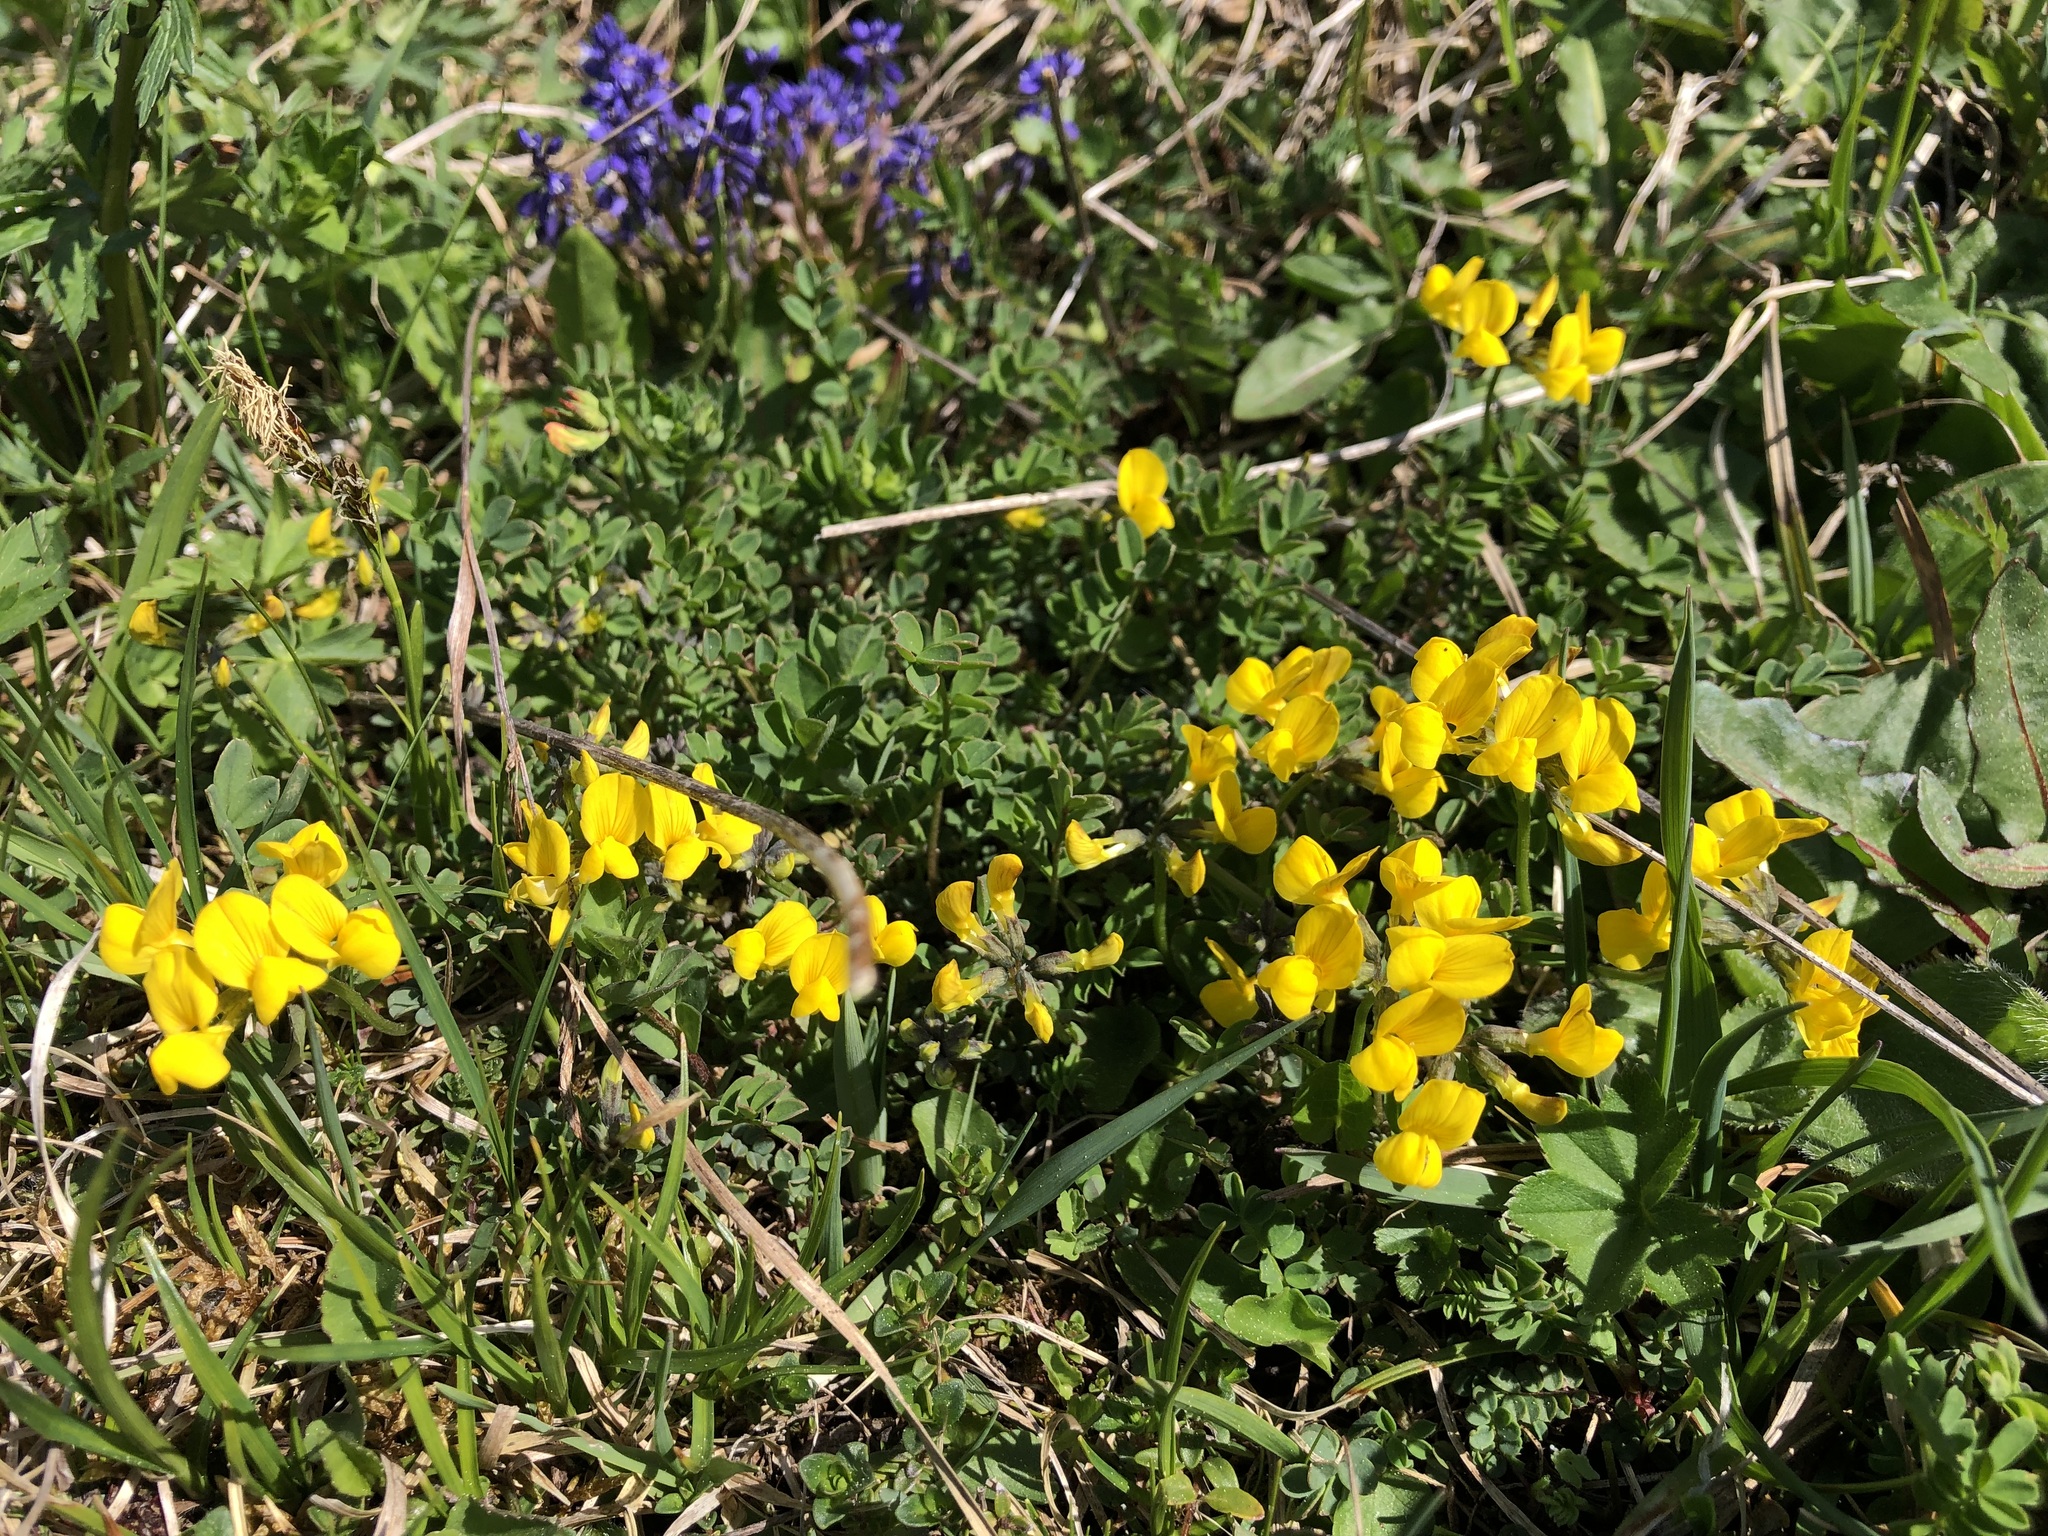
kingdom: Plantae
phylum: Tracheophyta
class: Magnoliopsida
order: Fabales
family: Fabaceae
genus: Hippocrepis
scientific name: Hippocrepis comosa
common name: Horseshoe vetch
